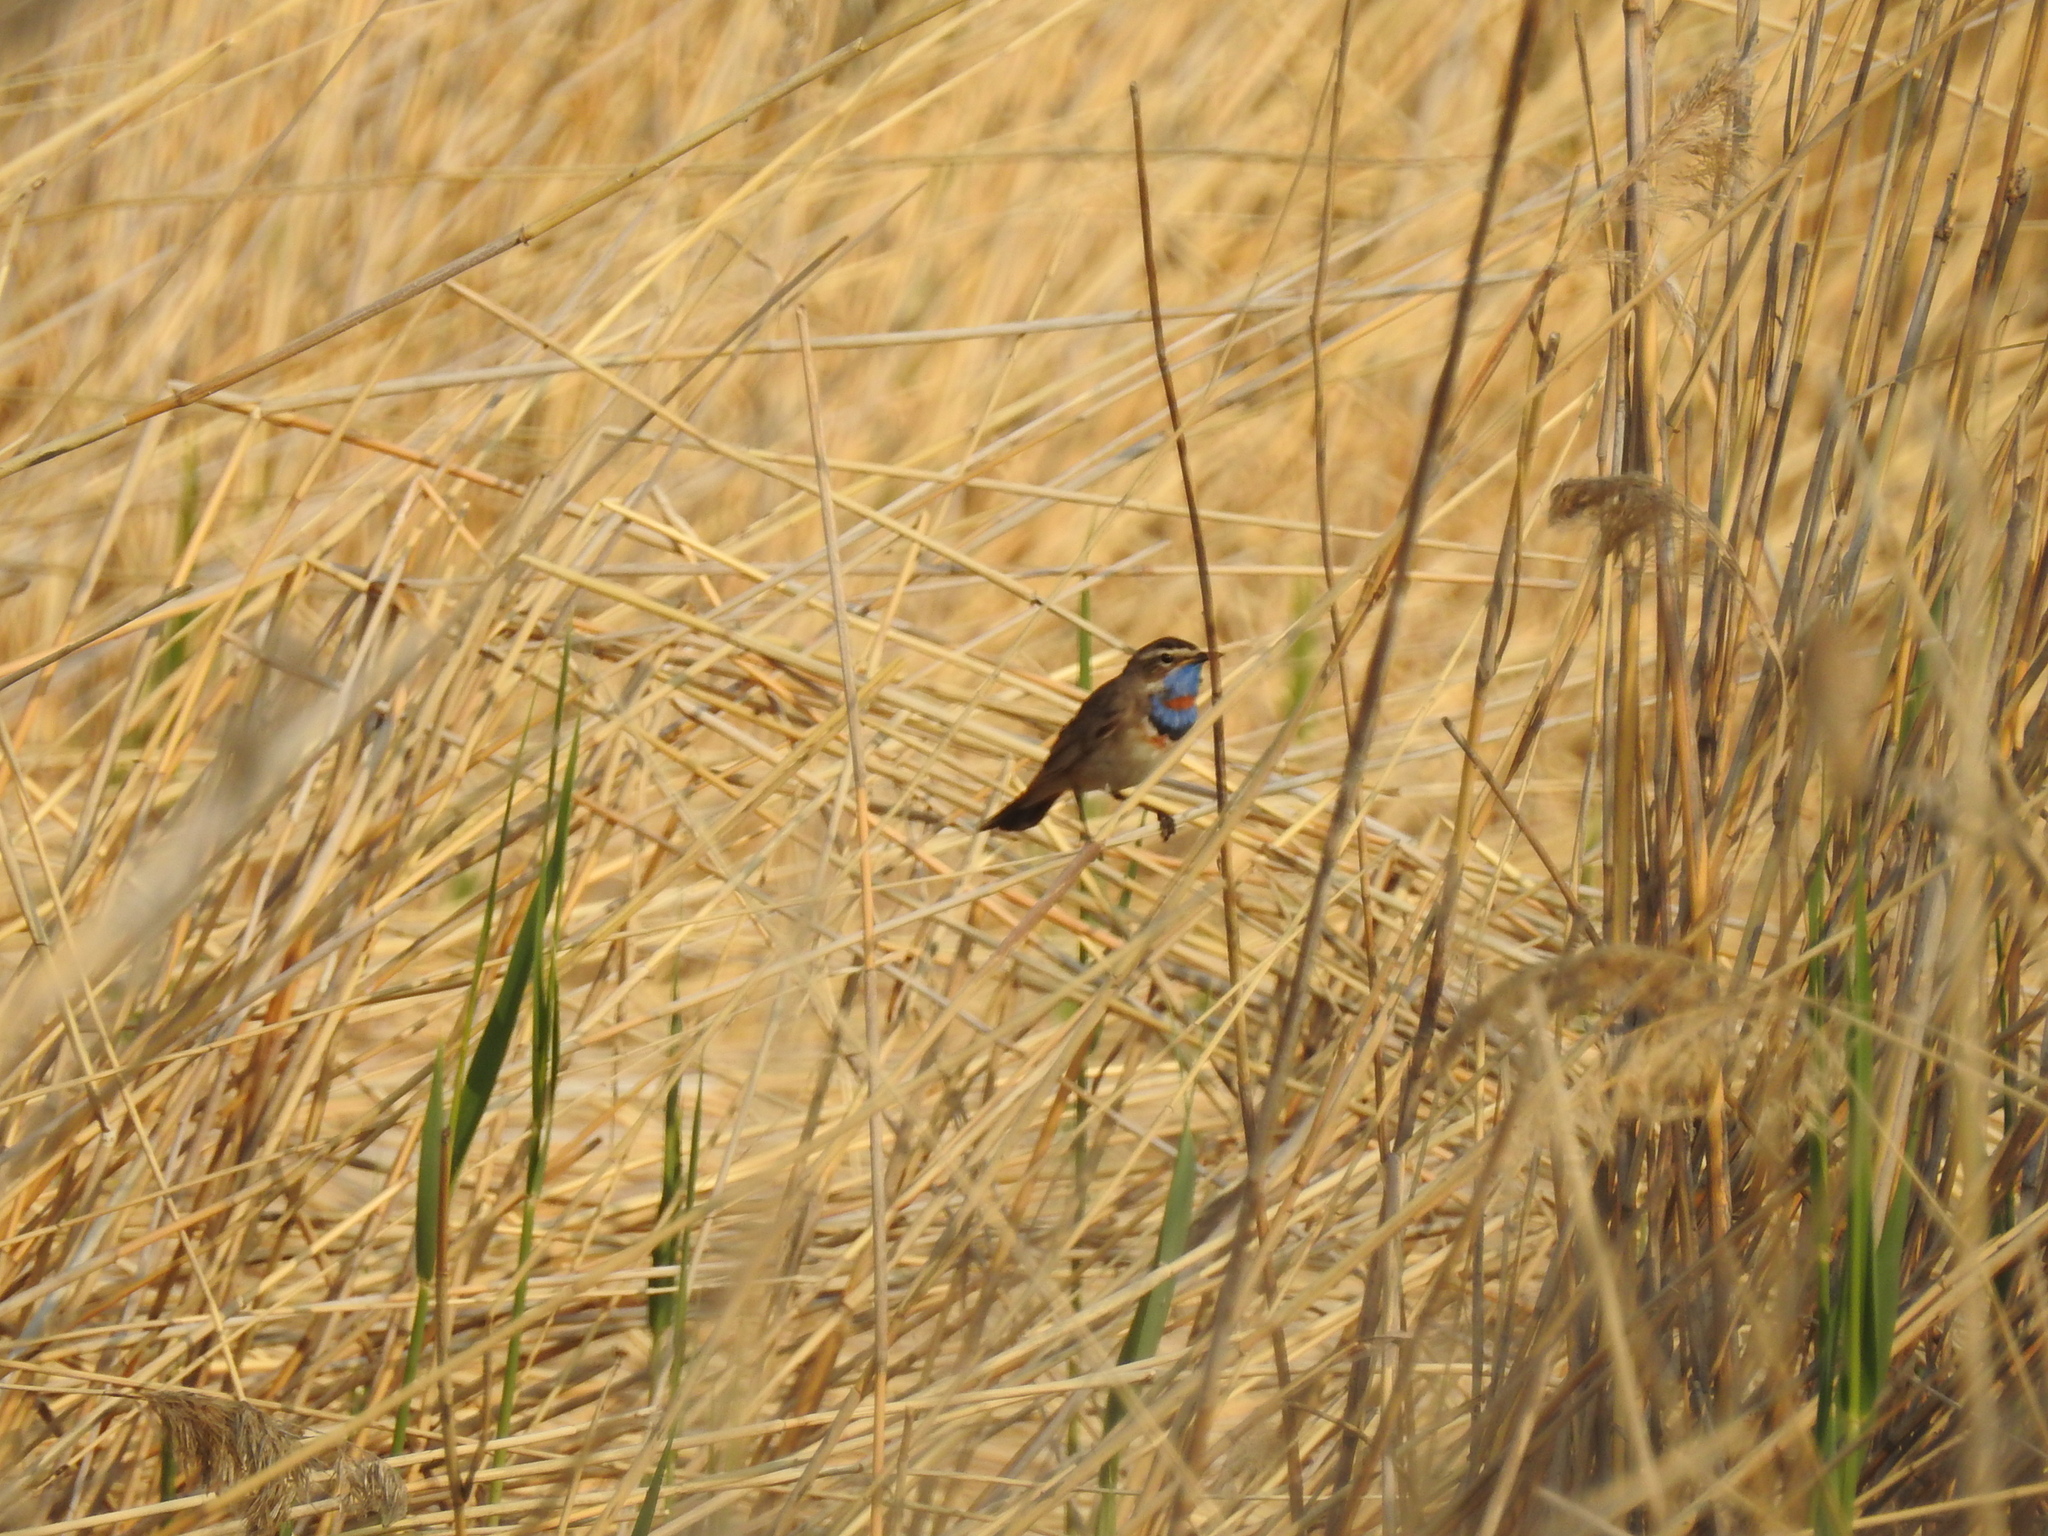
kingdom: Animalia
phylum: Chordata
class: Aves
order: Passeriformes
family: Muscicapidae
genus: Luscinia
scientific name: Luscinia svecica
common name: Bluethroat
